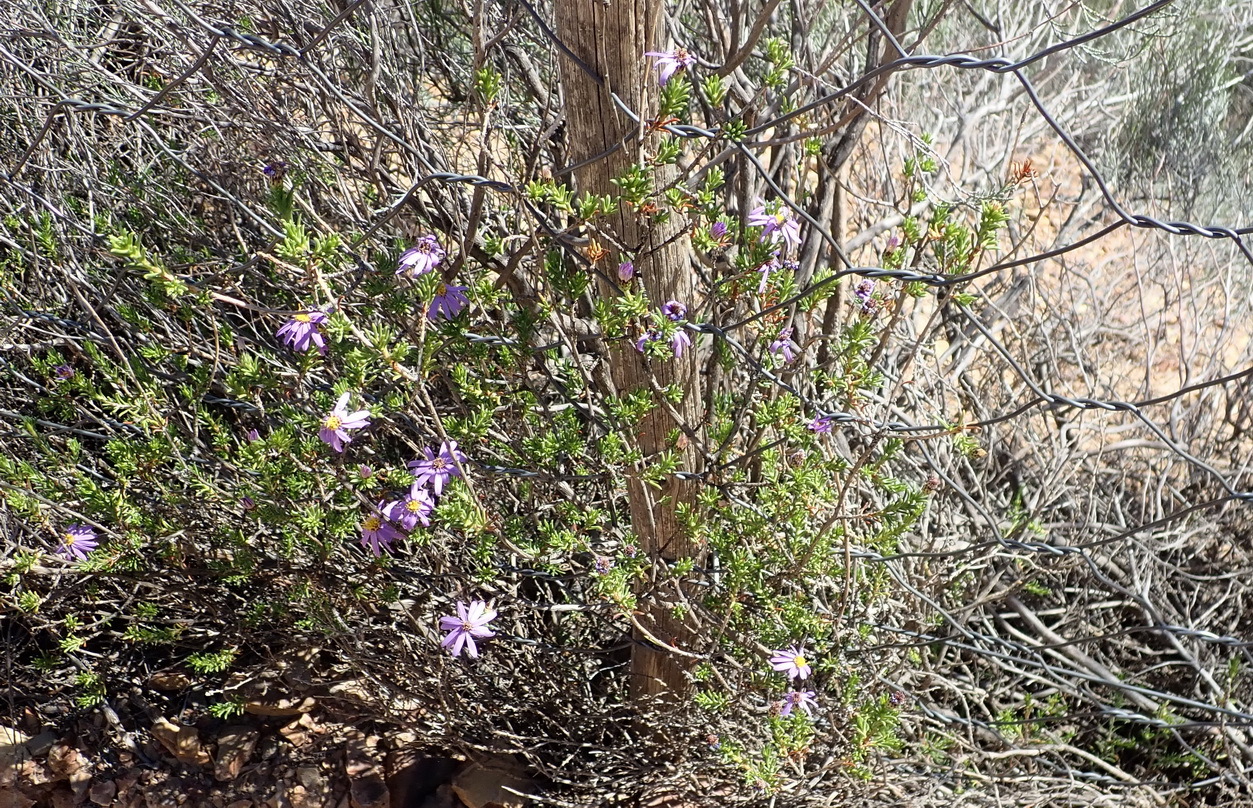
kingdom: Plantae
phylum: Tracheophyta
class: Magnoliopsida
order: Asterales
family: Asteraceae
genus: Felicia
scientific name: Felicia filifolia
